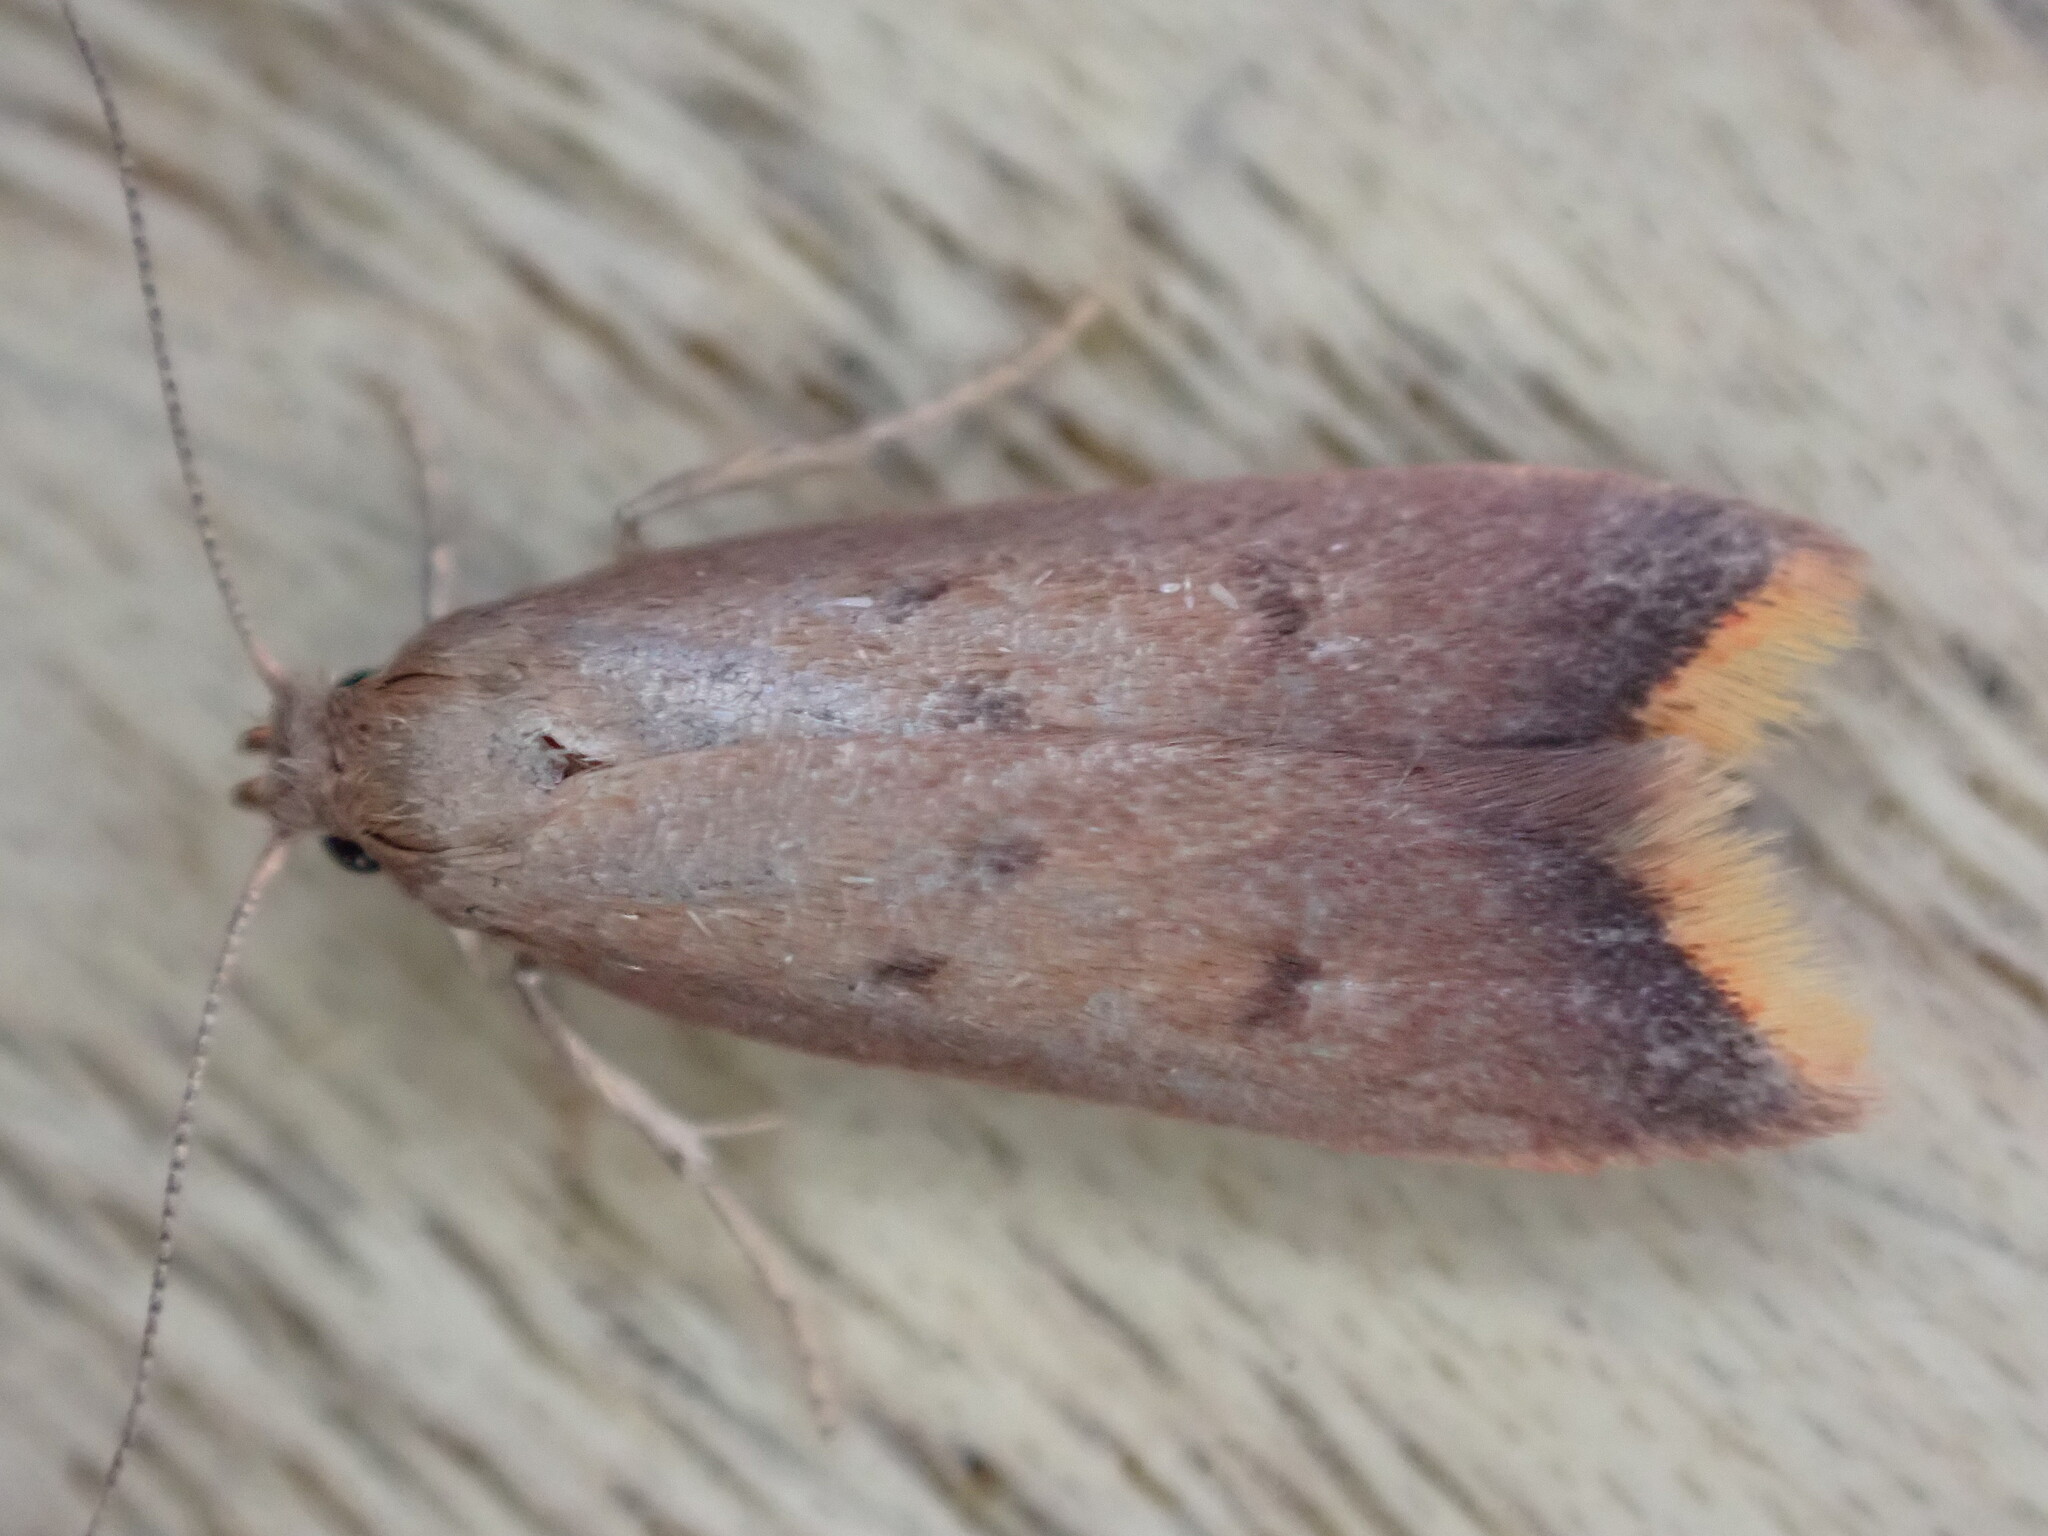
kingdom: Animalia
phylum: Arthropoda
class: Insecta
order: Lepidoptera
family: Oecophoridae
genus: Tachystola
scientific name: Tachystola acroxantha
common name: Ruddy streak
